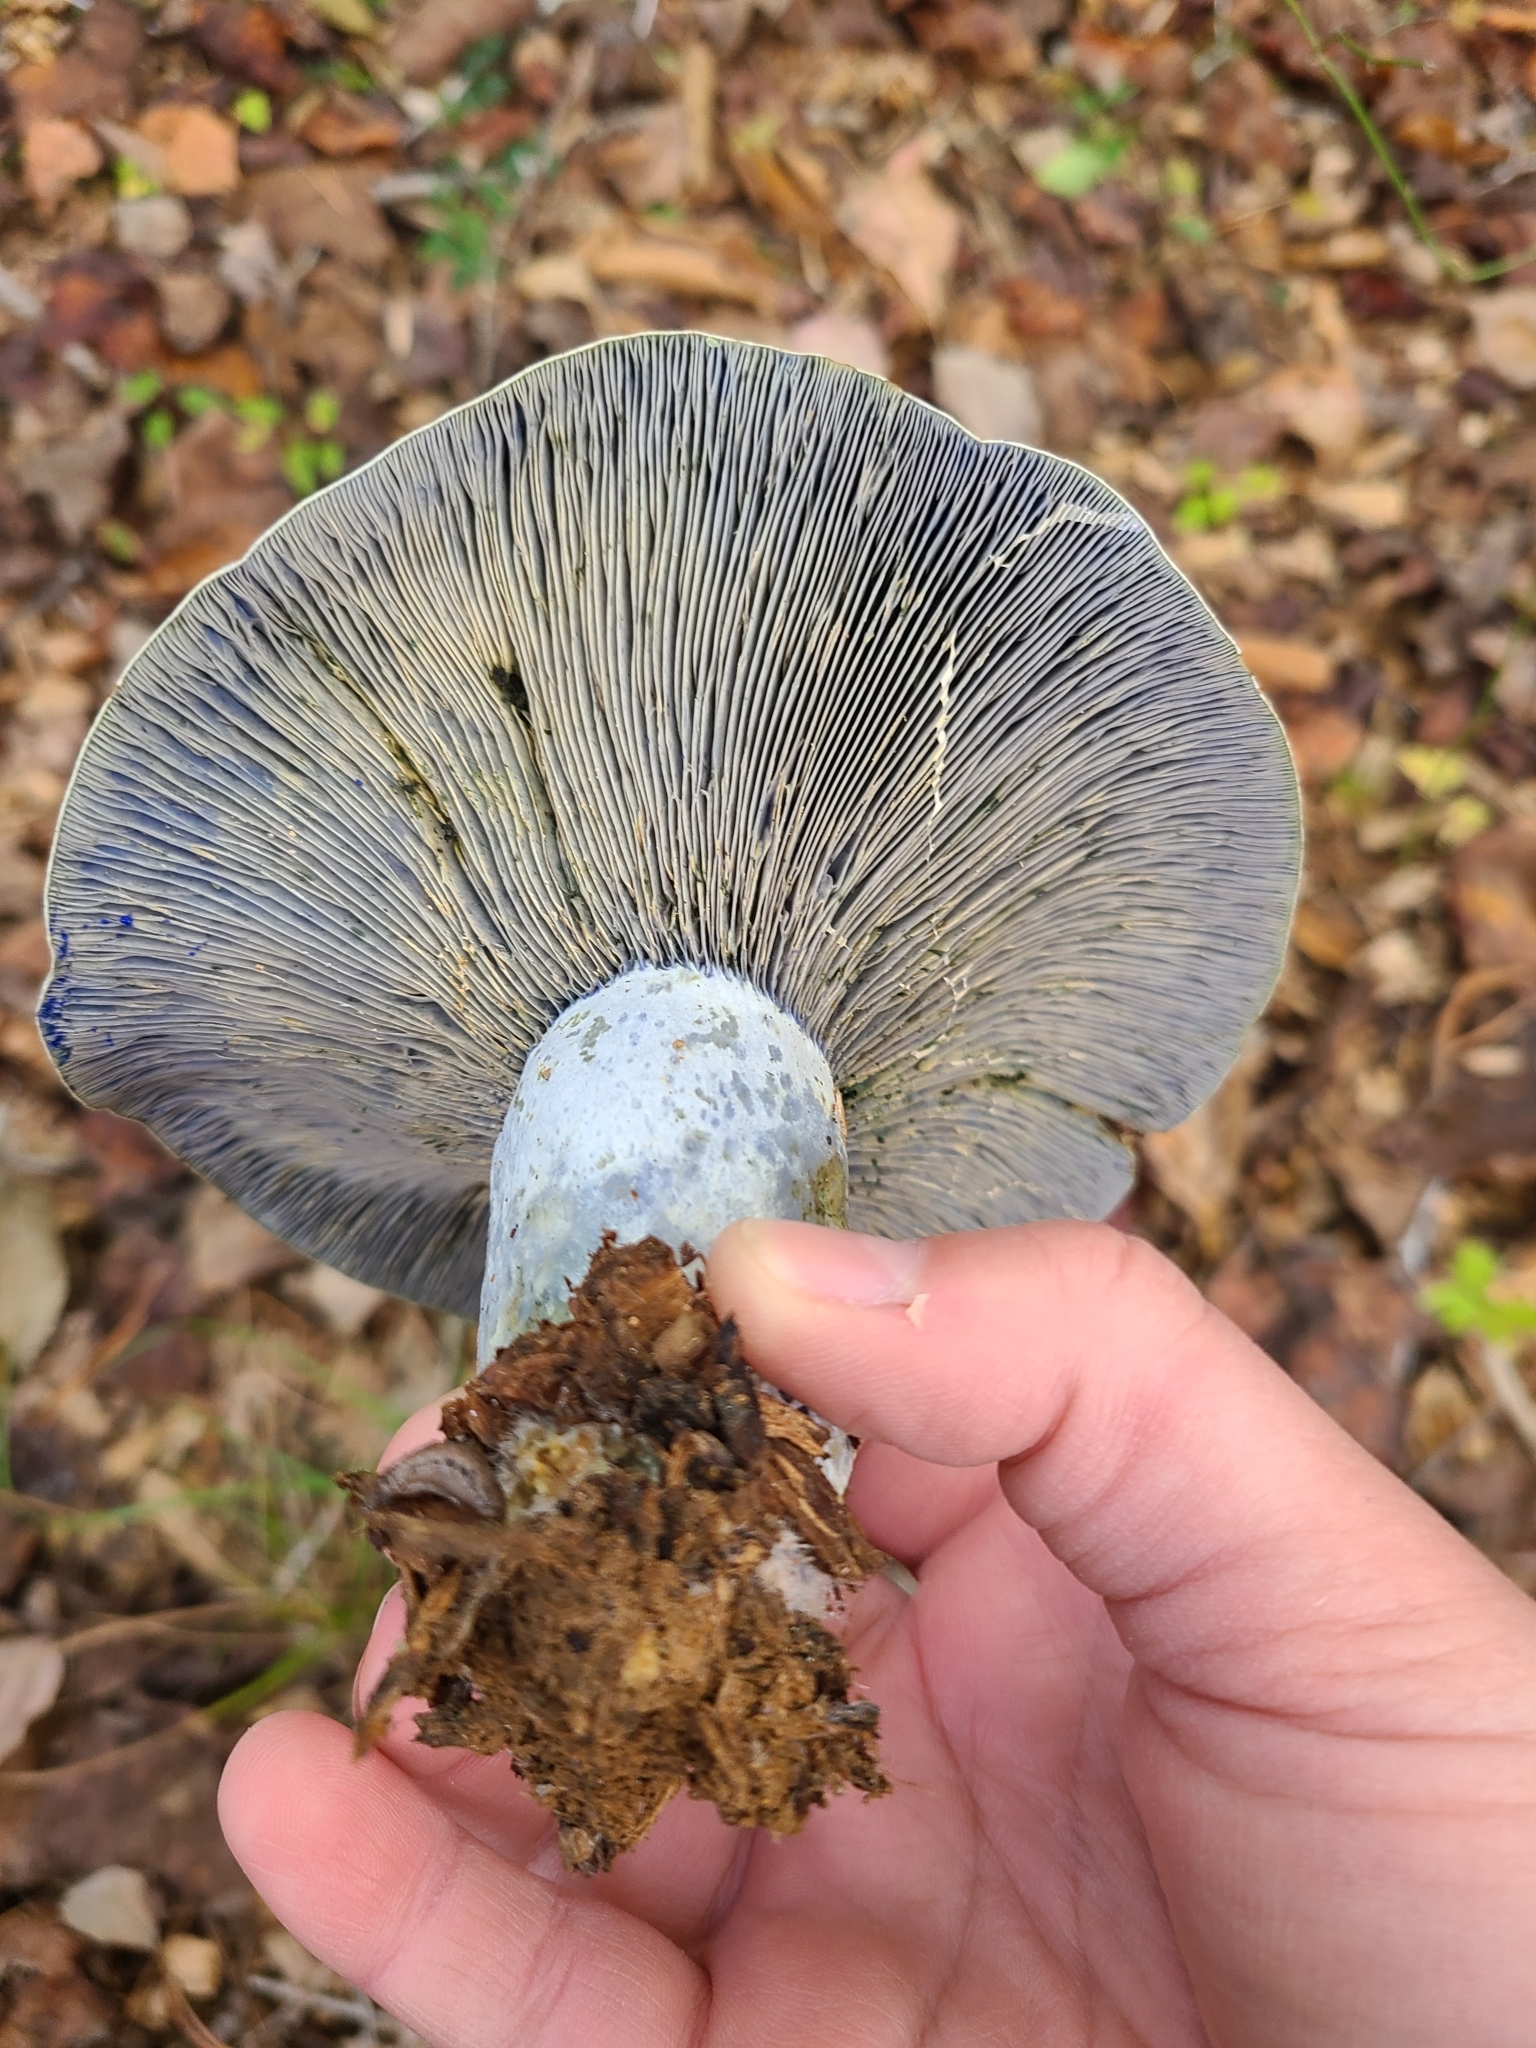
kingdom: Fungi
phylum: Basidiomycota
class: Agaricomycetes
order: Russulales
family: Russulaceae
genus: Lactarius
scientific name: Lactarius indigo
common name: Indigo milk cap
